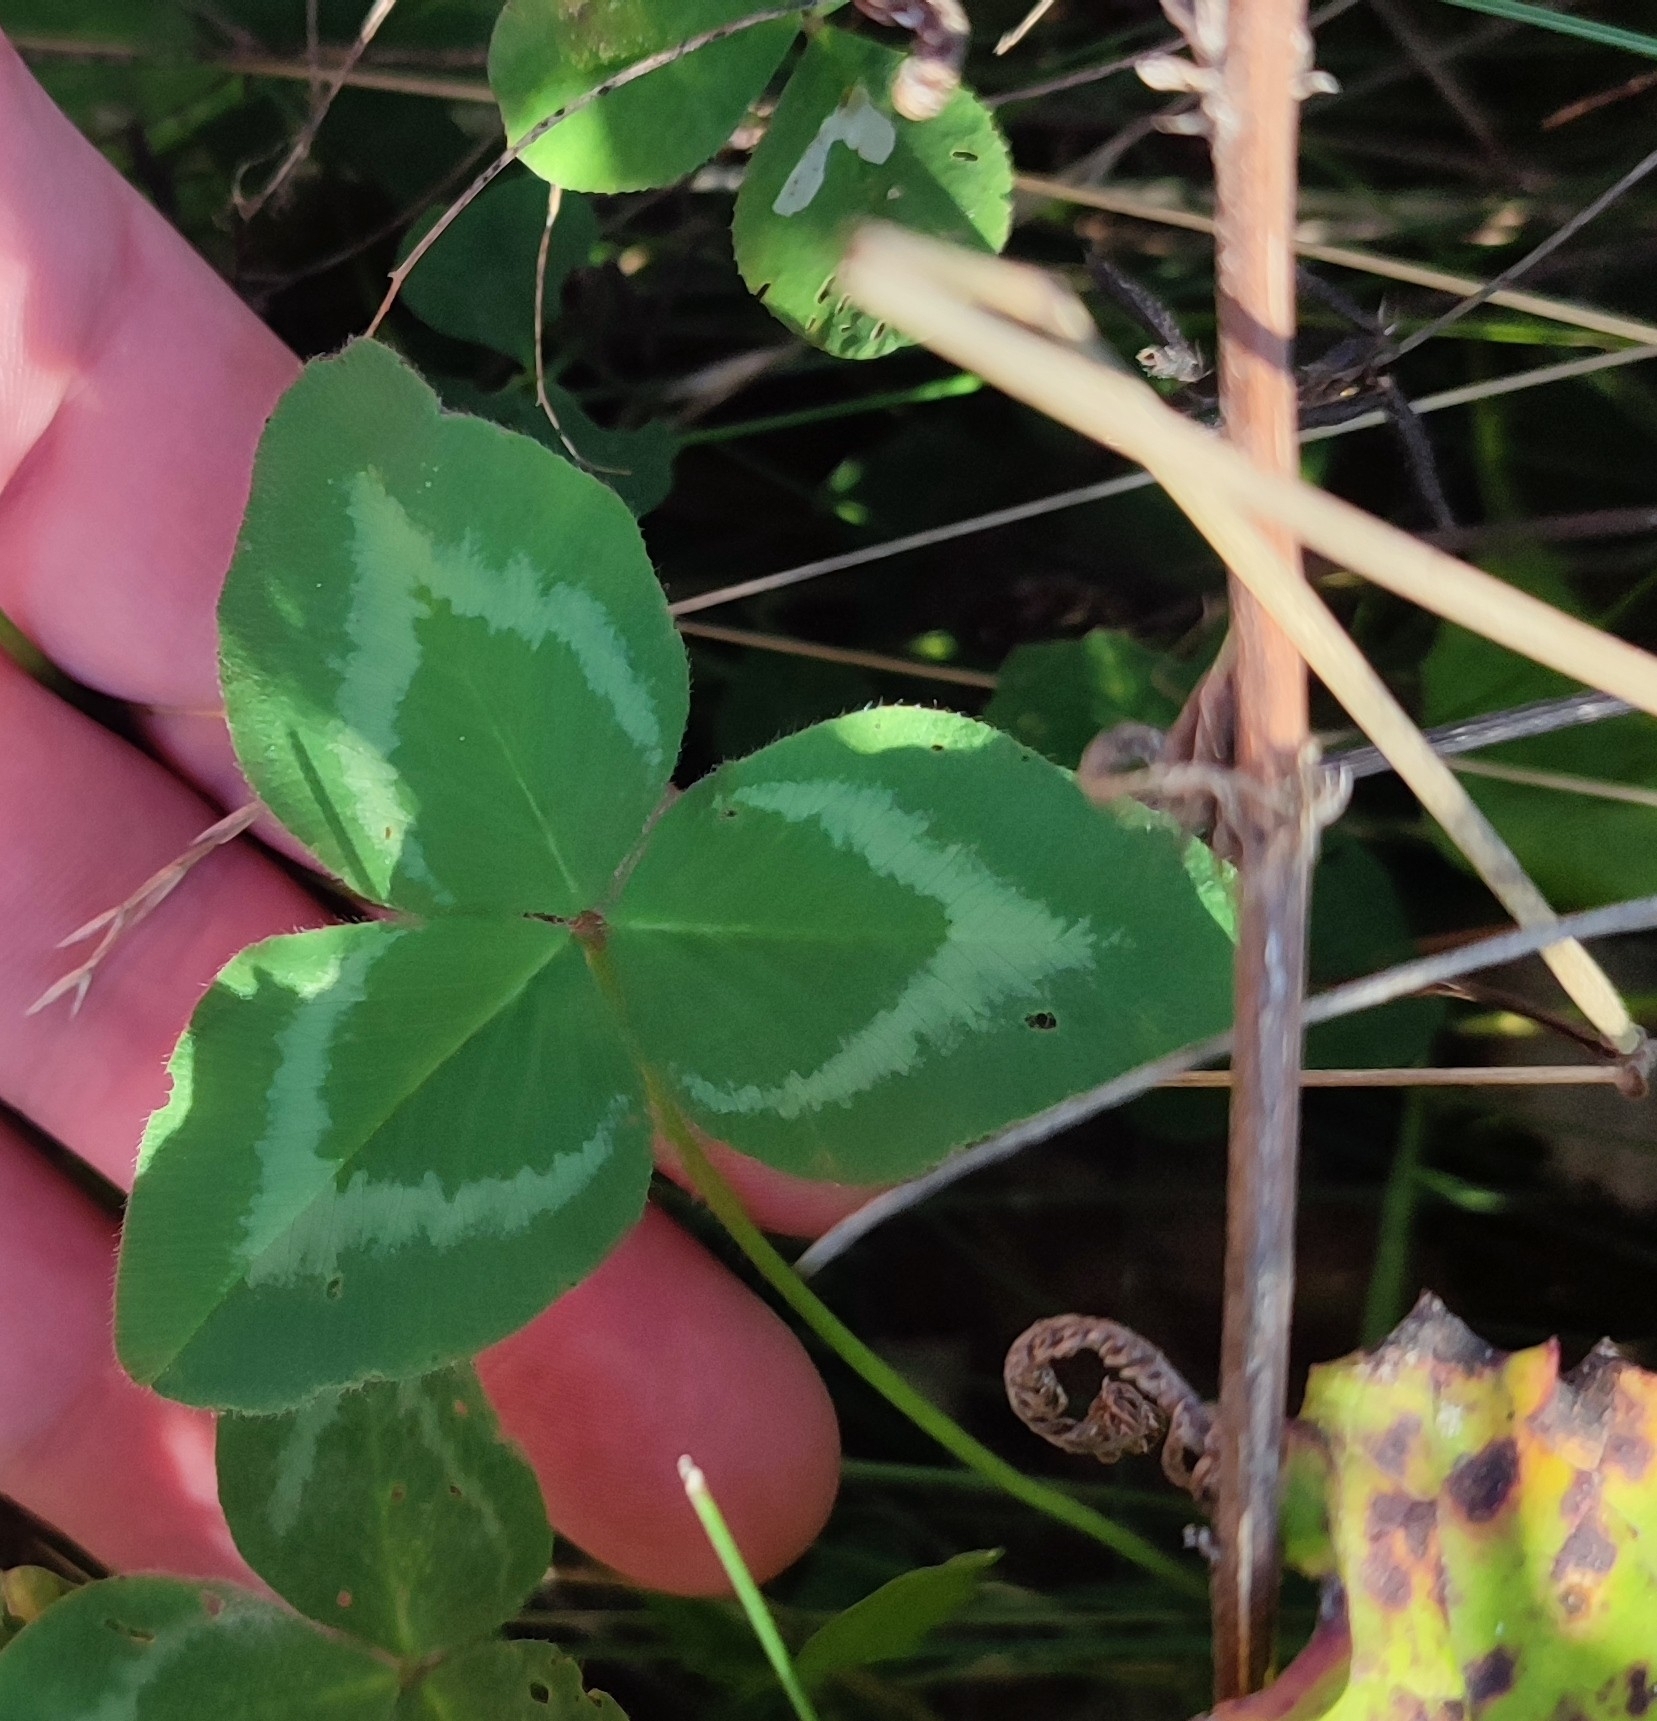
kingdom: Plantae
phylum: Tracheophyta
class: Magnoliopsida
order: Fabales
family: Fabaceae
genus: Trifolium
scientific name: Trifolium pratense
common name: Red clover
